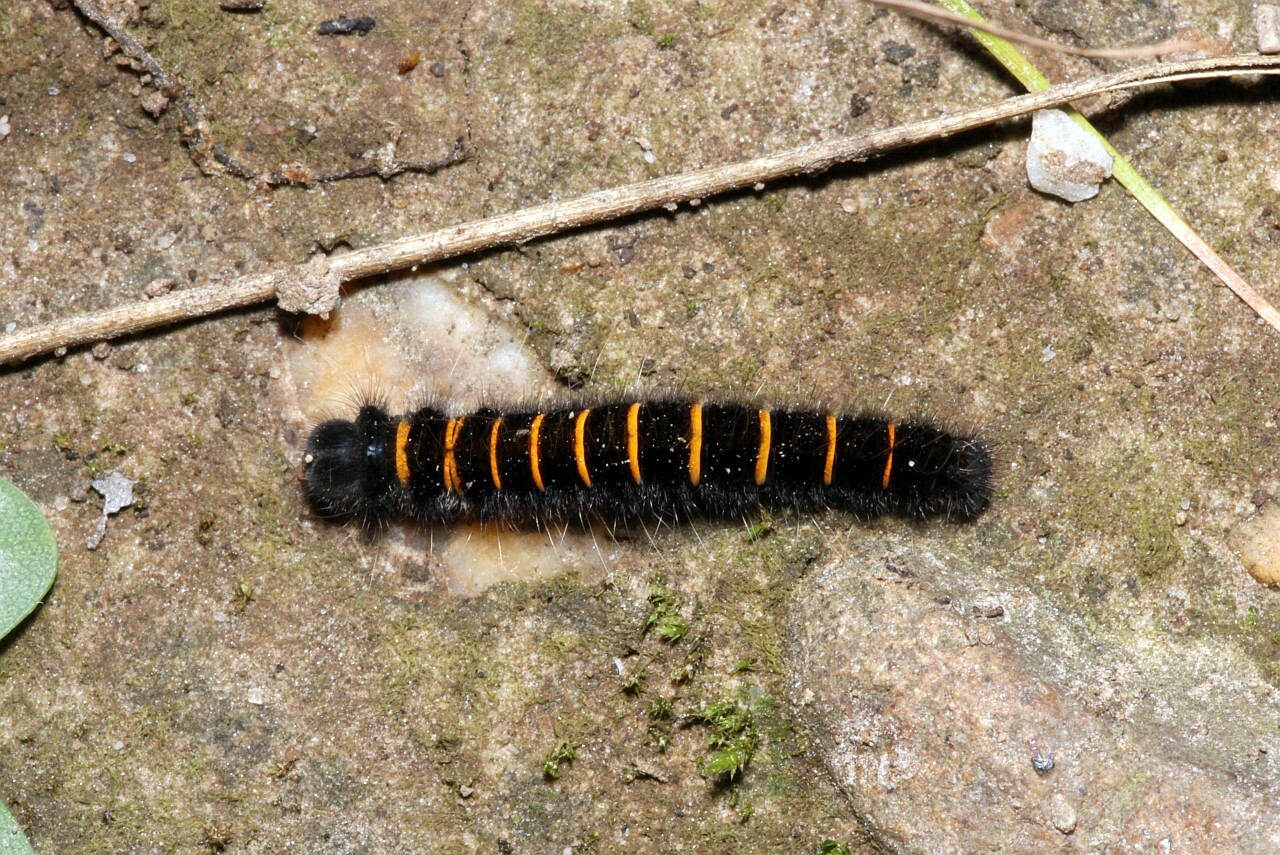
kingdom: Animalia
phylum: Arthropoda
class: Insecta
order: Lepidoptera
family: Lasiocampidae
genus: Macrothylacia
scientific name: Macrothylacia rubi
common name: Fox moth
